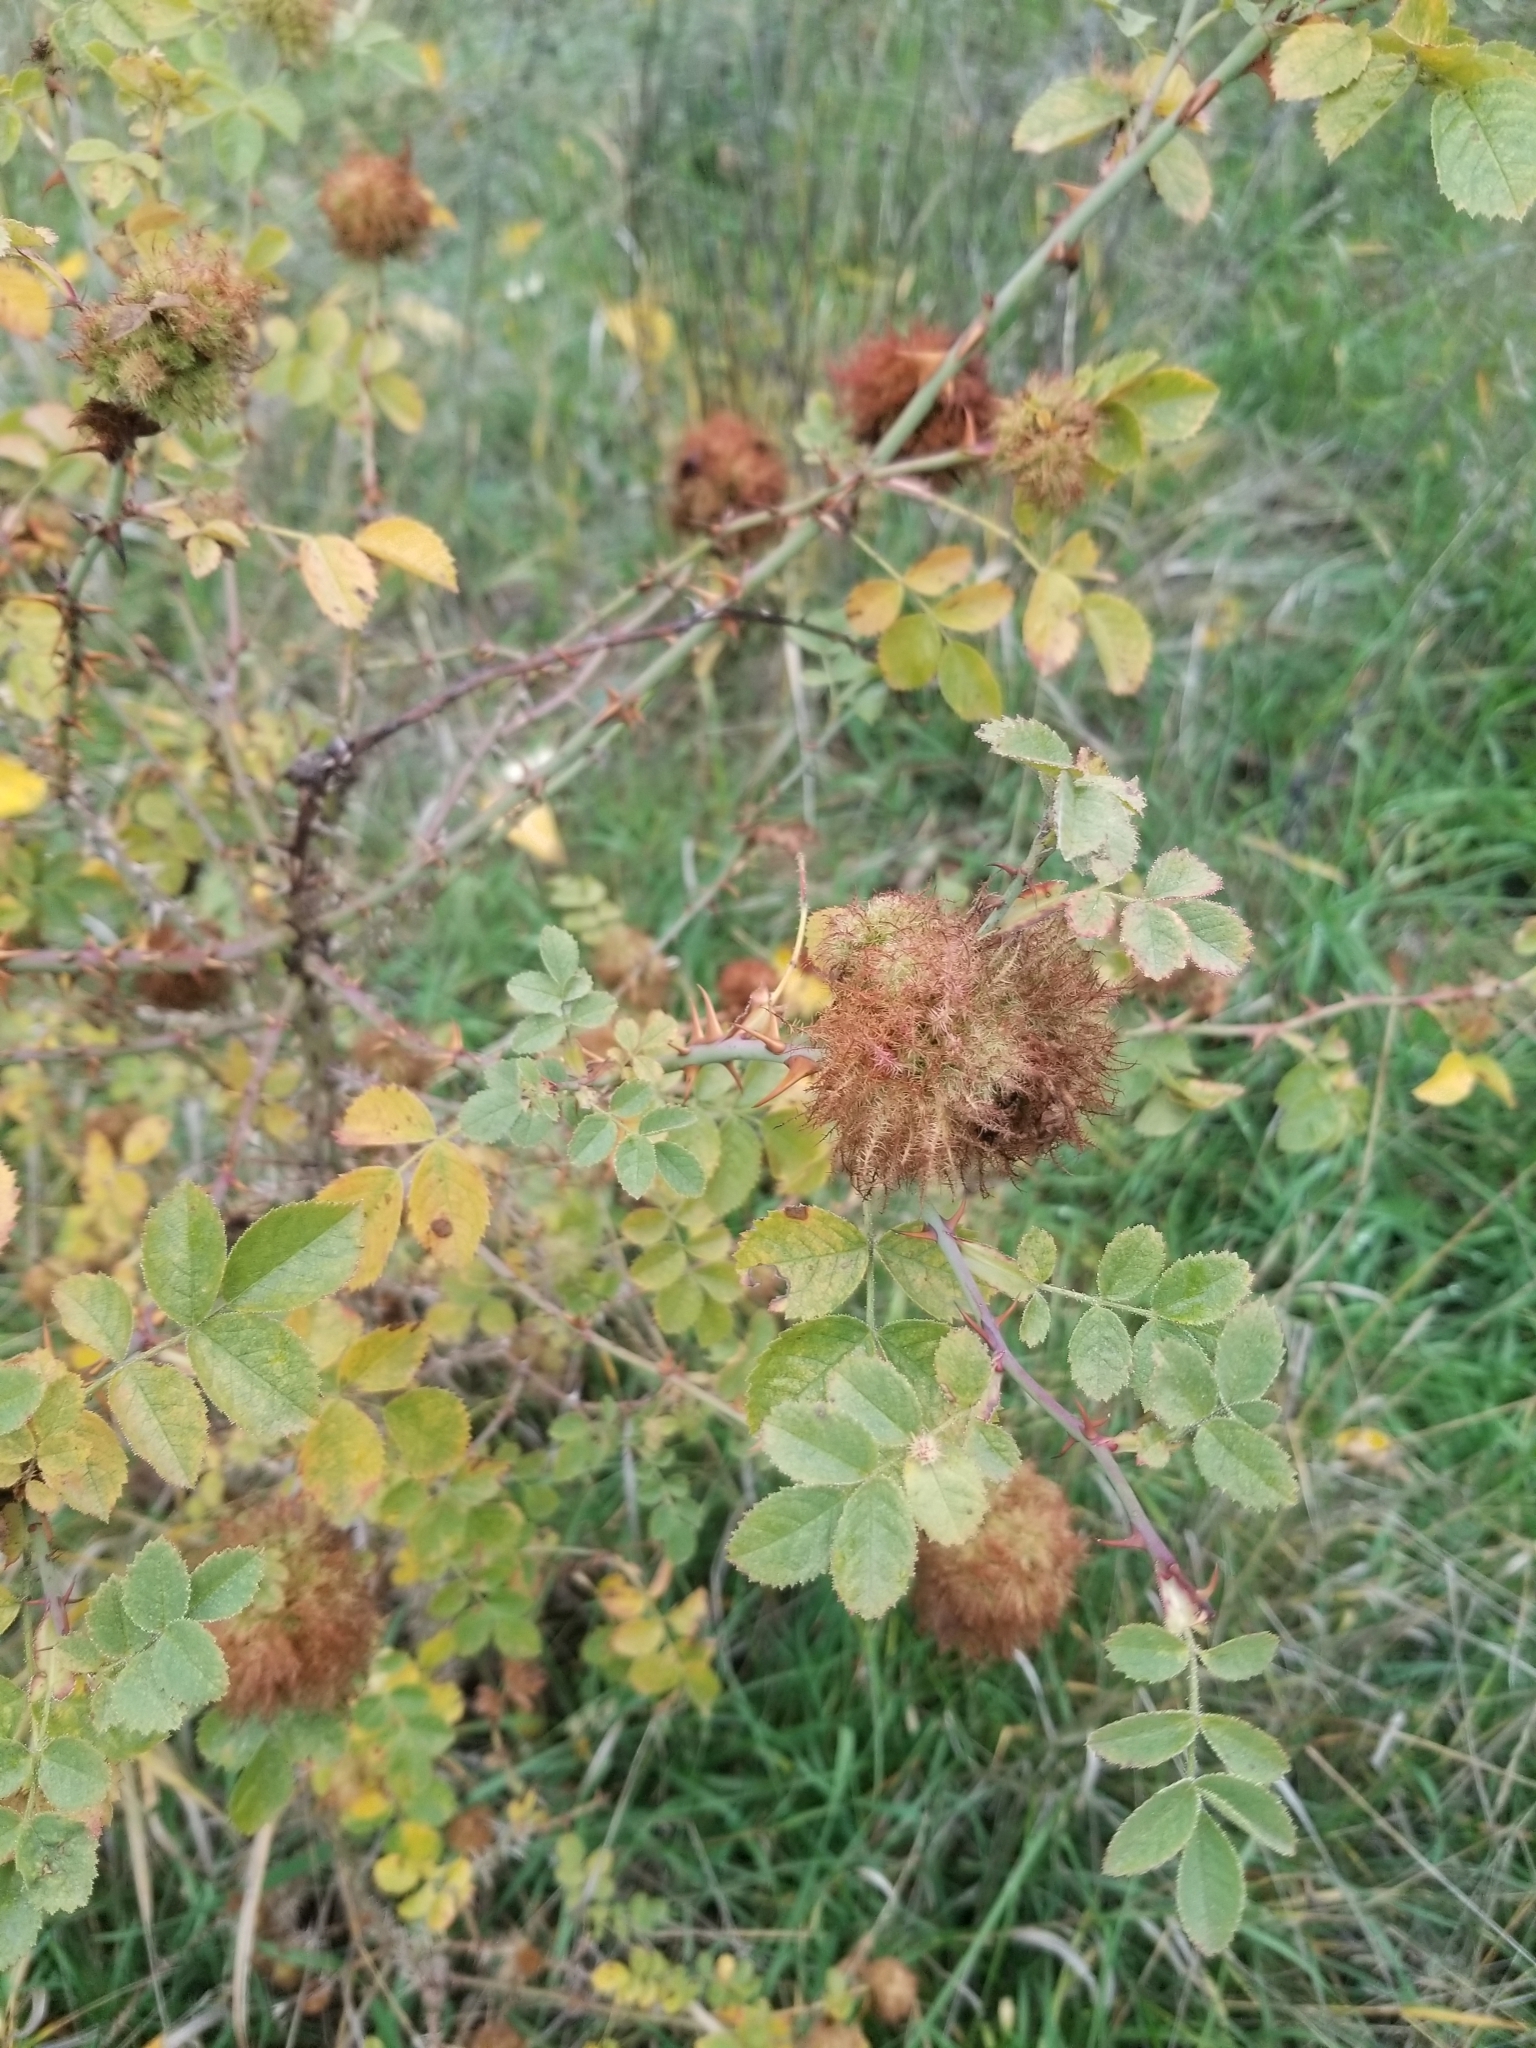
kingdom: Animalia
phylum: Arthropoda
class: Insecta
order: Hymenoptera
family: Cynipidae
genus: Diplolepis
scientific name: Diplolepis rosae
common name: Bedeguar gall
